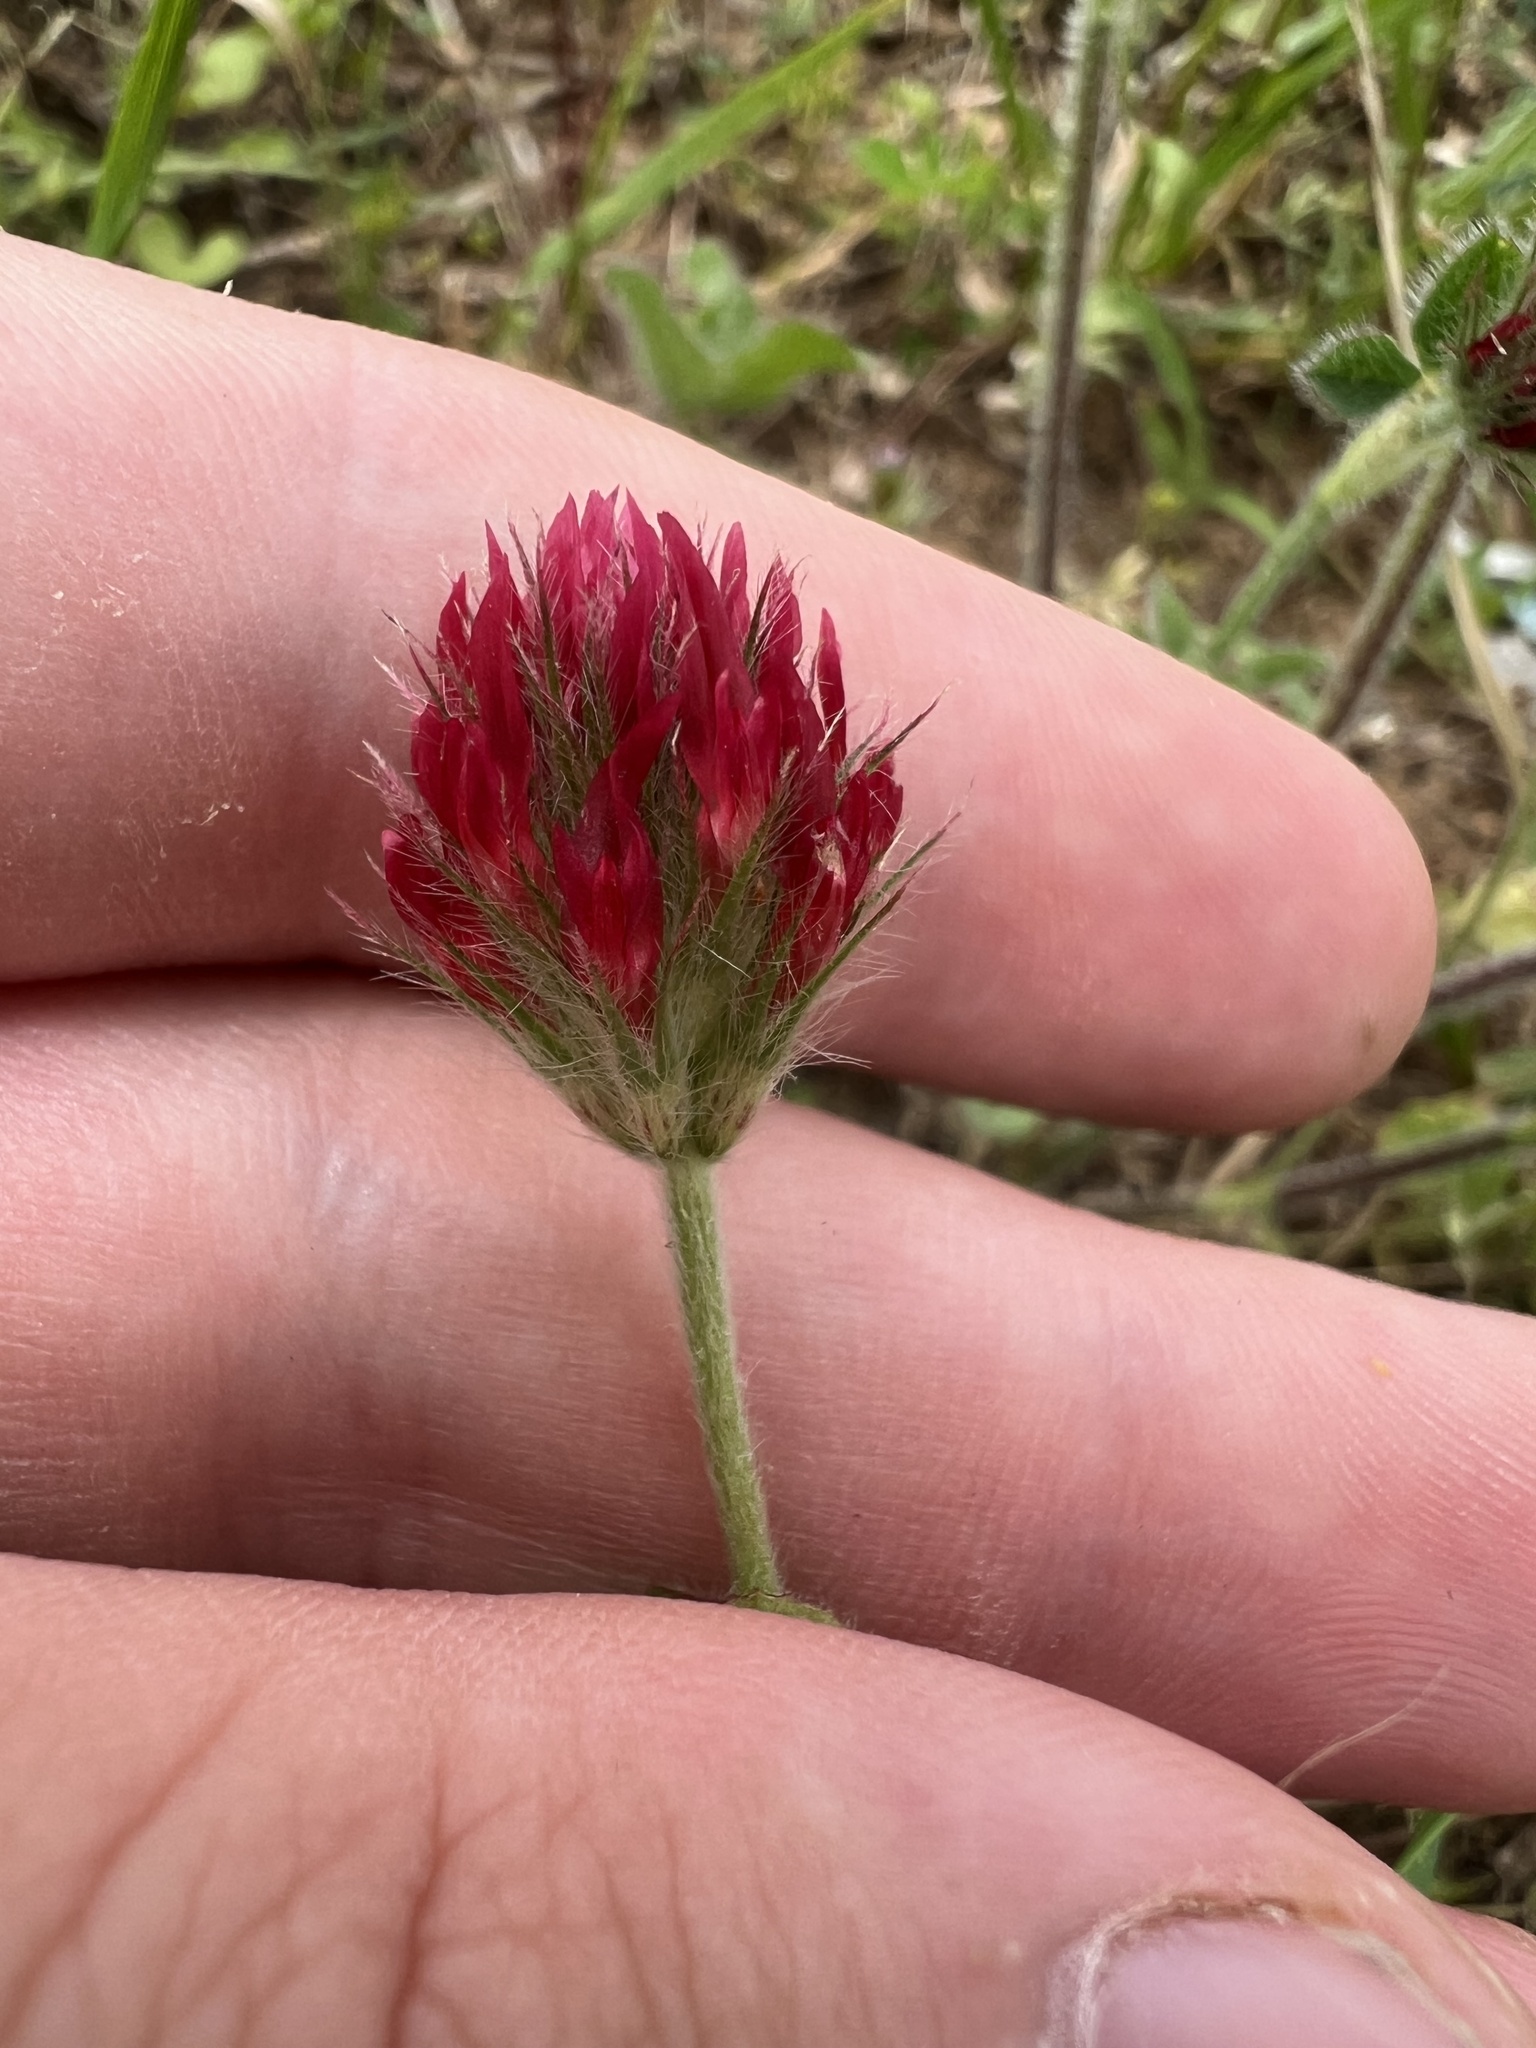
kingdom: Plantae
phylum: Tracheophyta
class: Magnoliopsida
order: Fabales
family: Fabaceae
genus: Trifolium
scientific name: Trifolium incarnatum
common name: Crimson clover
